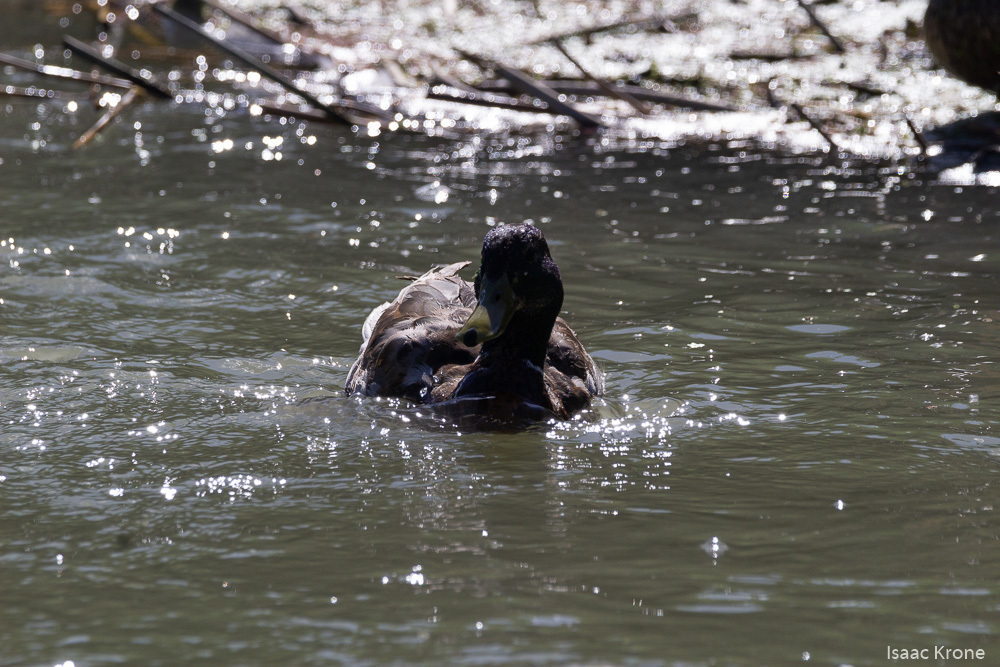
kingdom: Animalia
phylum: Chordata
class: Aves
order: Anseriformes
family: Anatidae
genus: Anas
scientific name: Anas platyrhynchos
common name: Mallard
